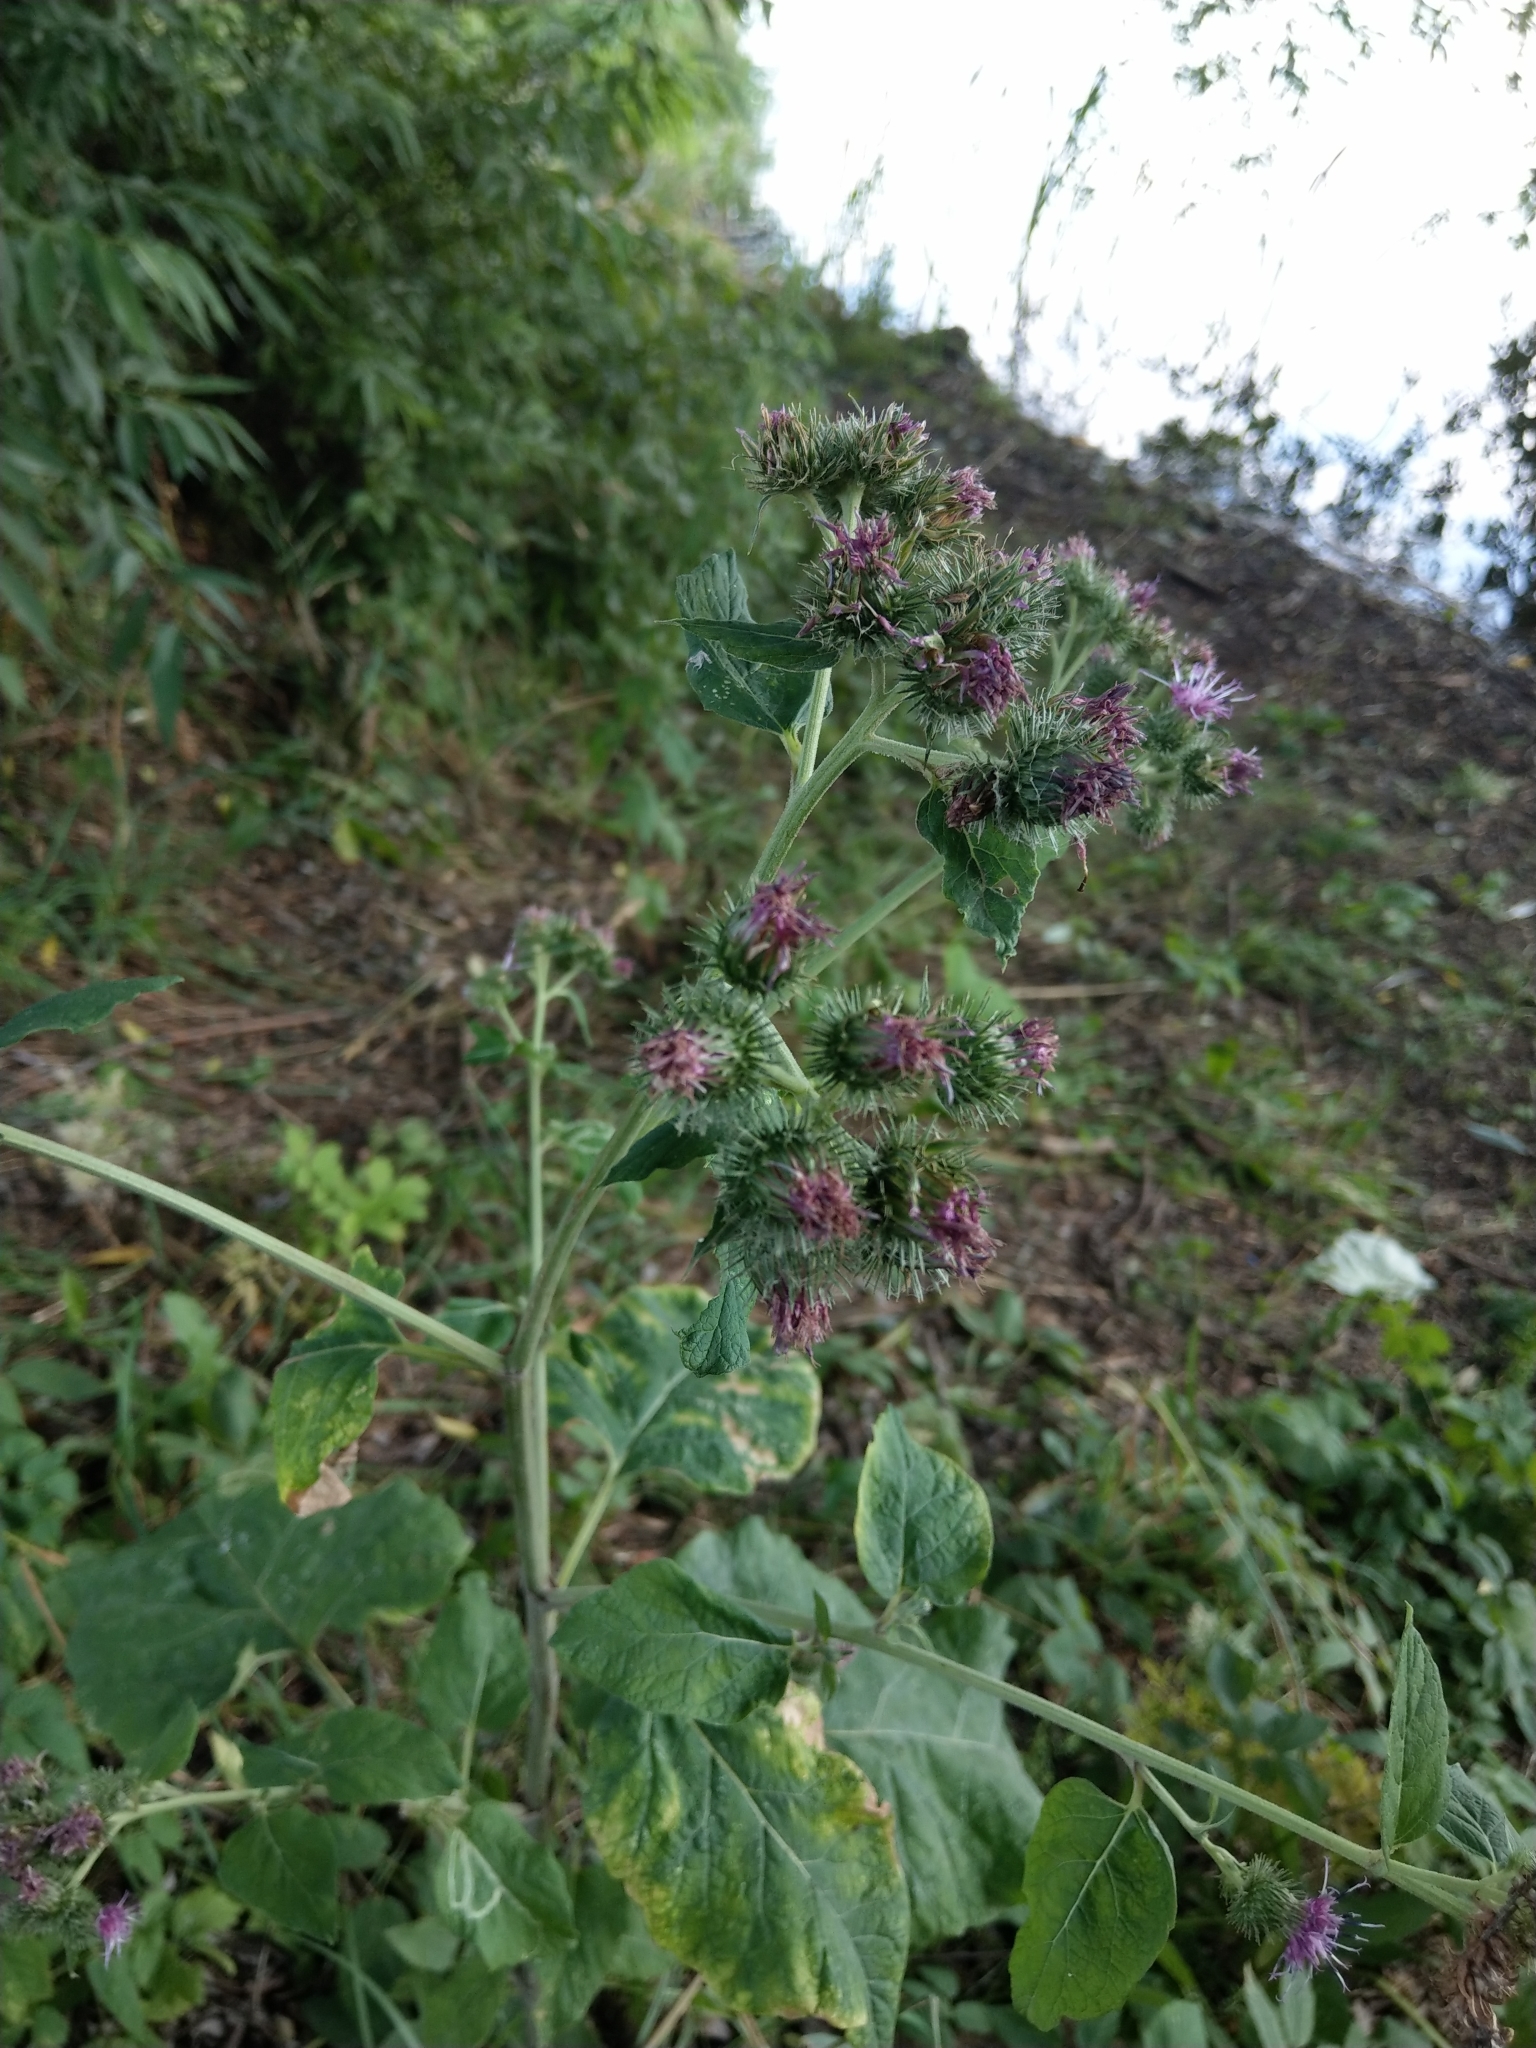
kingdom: Plantae
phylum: Tracheophyta
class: Magnoliopsida
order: Asterales
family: Asteraceae
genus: Arctium
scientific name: Arctium tomentosum
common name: Woolly burdock
